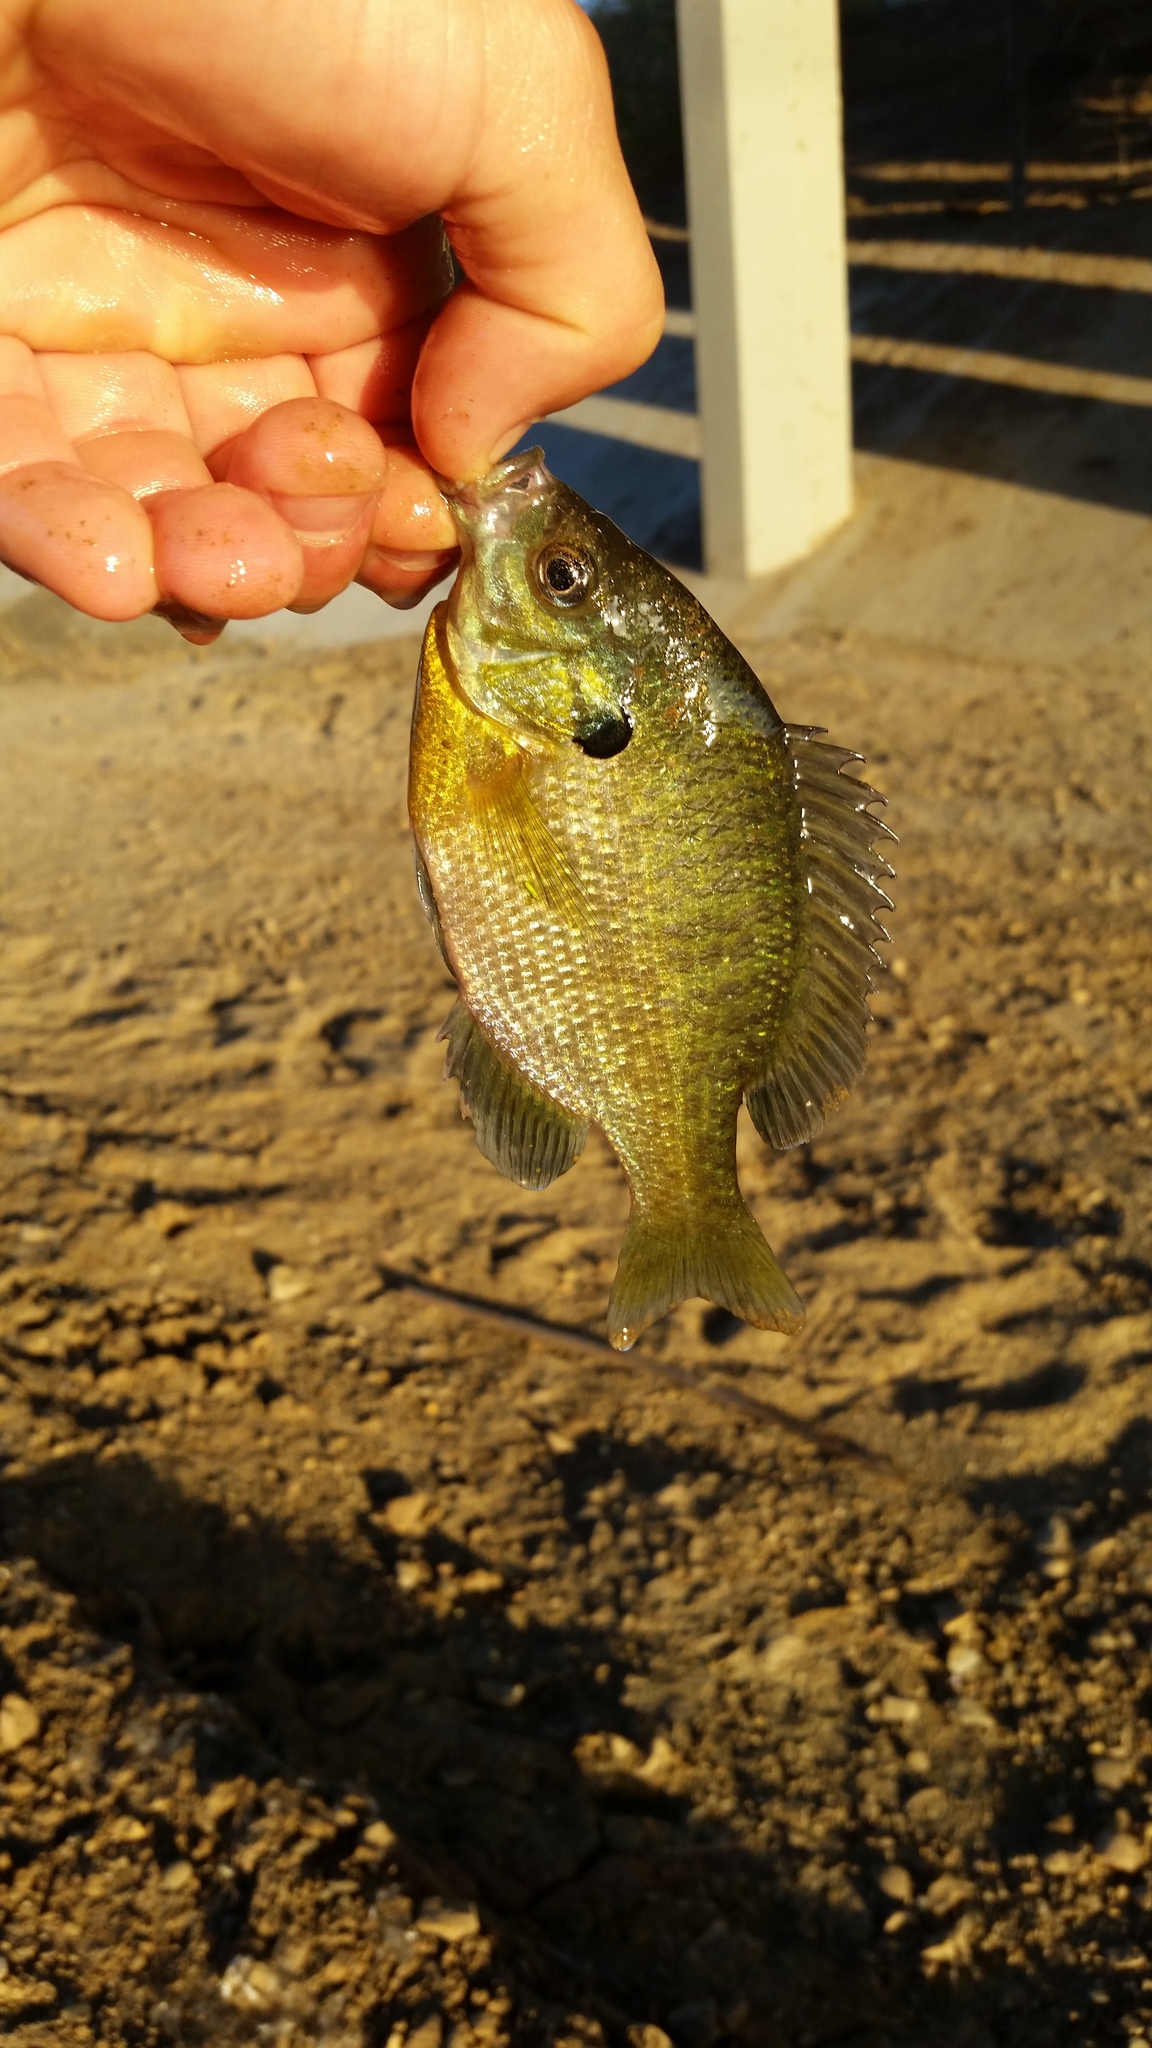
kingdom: Animalia
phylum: Chordata
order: Perciformes
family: Centrarchidae
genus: Lepomis
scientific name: Lepomis macrochirus
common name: Bluegill
